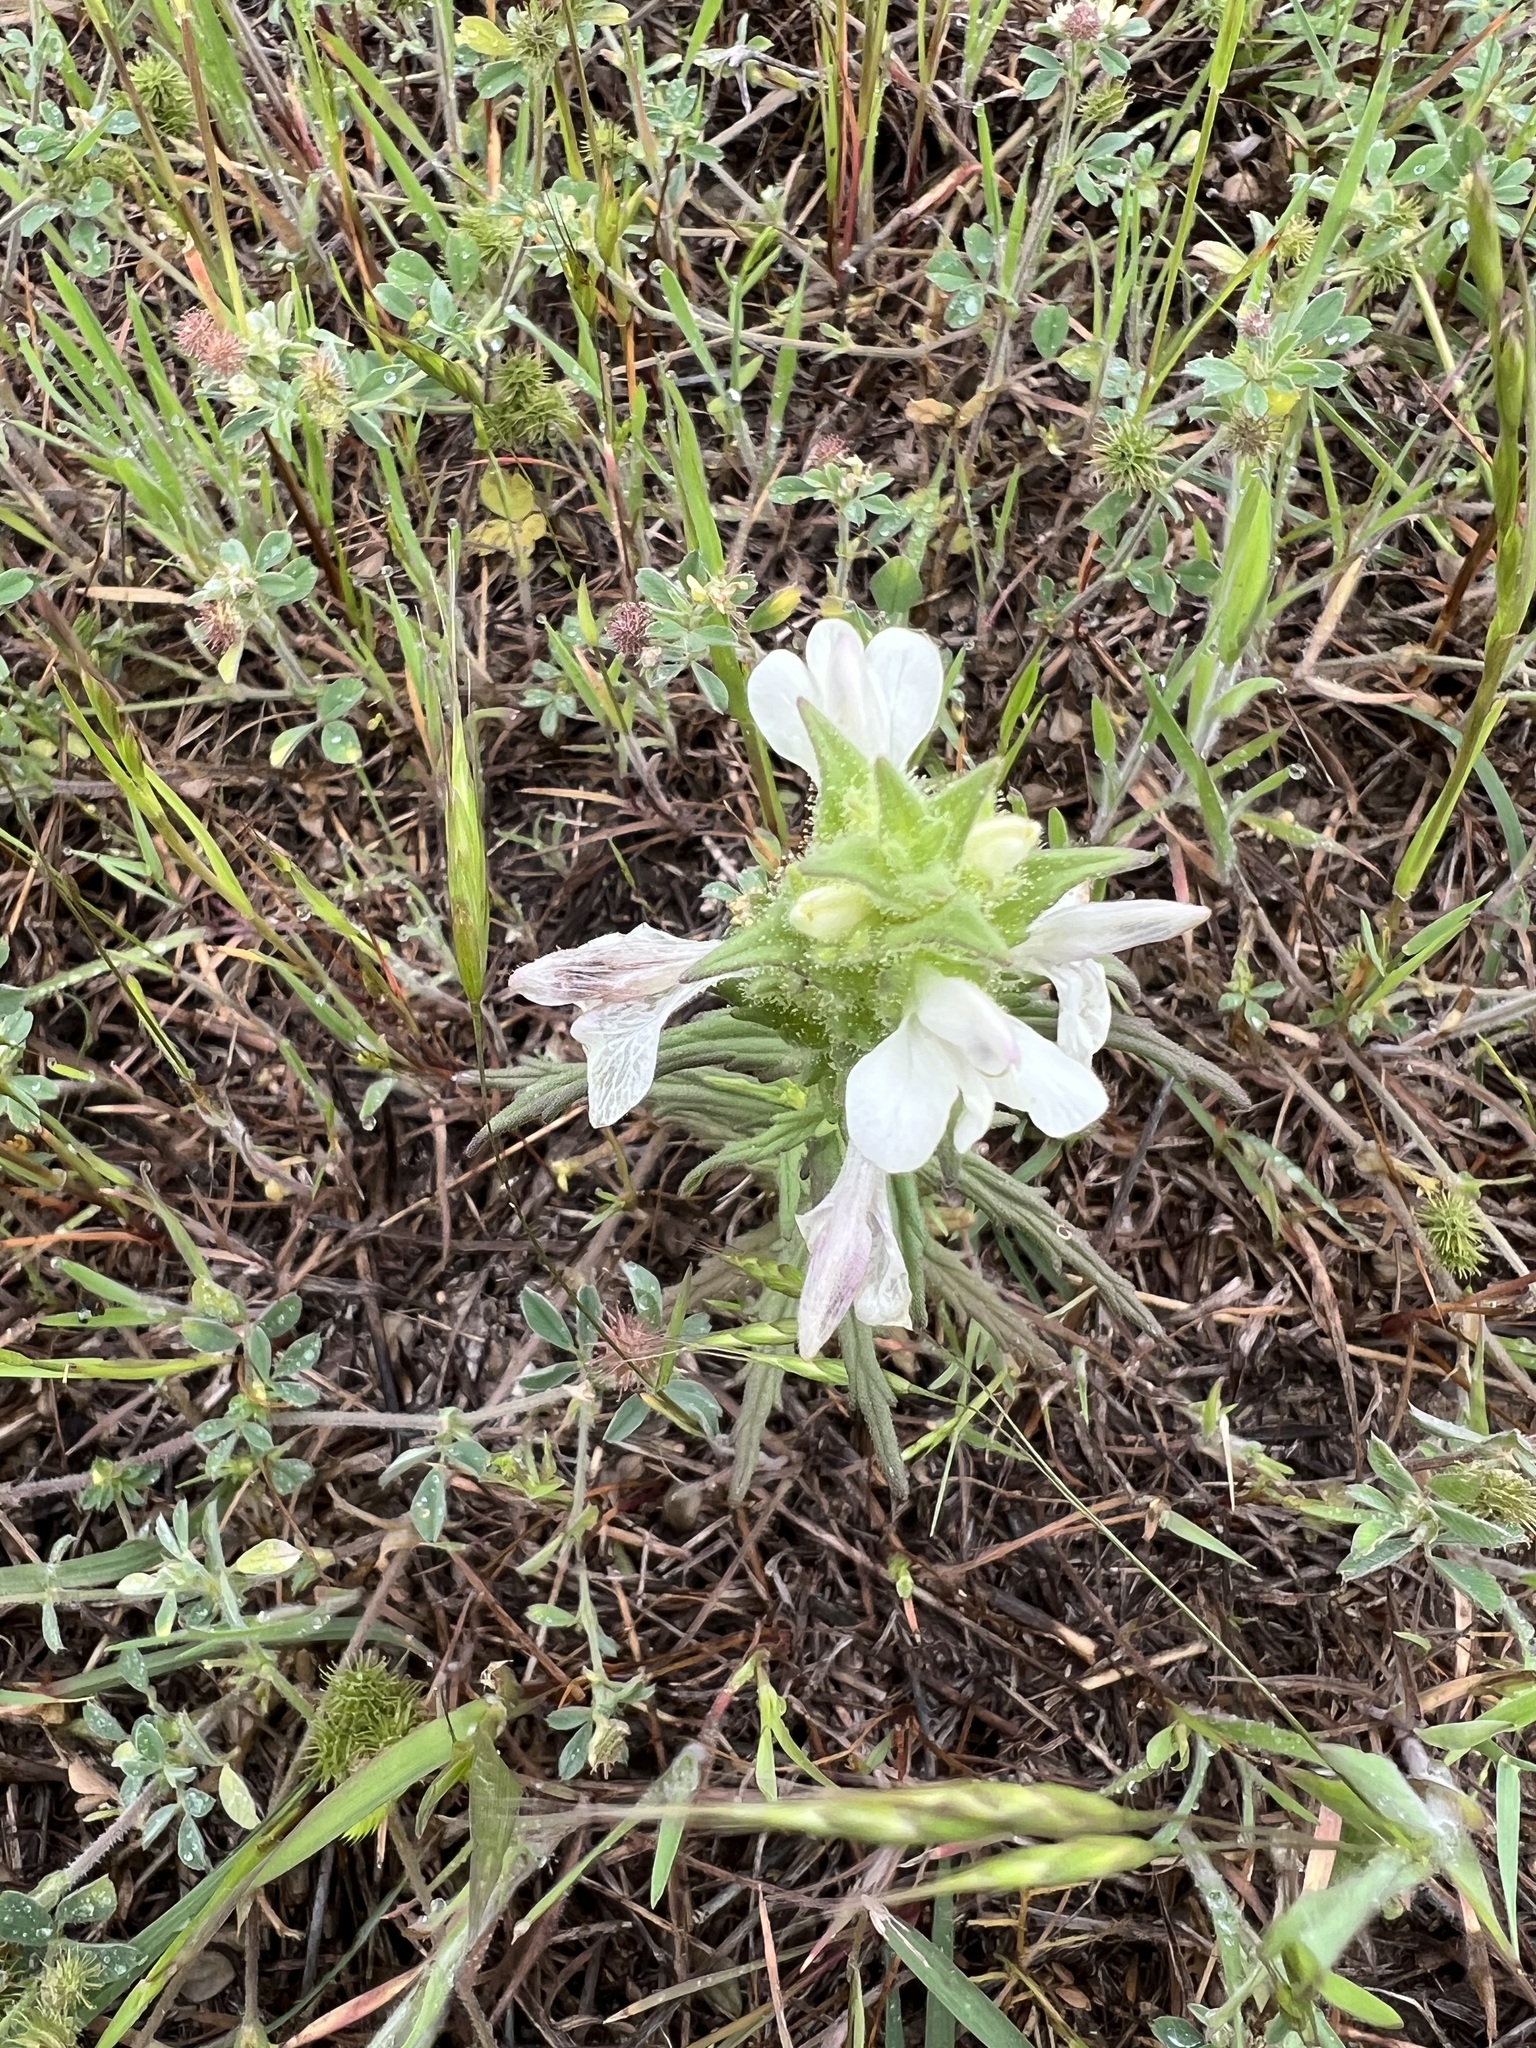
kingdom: Plantae
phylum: Tracheophyta
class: Magnoliopsida
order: Lamiales
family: Orobanchaceae
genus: Bellardia
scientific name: Bellardia trixago
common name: Mediterranean lineseed
